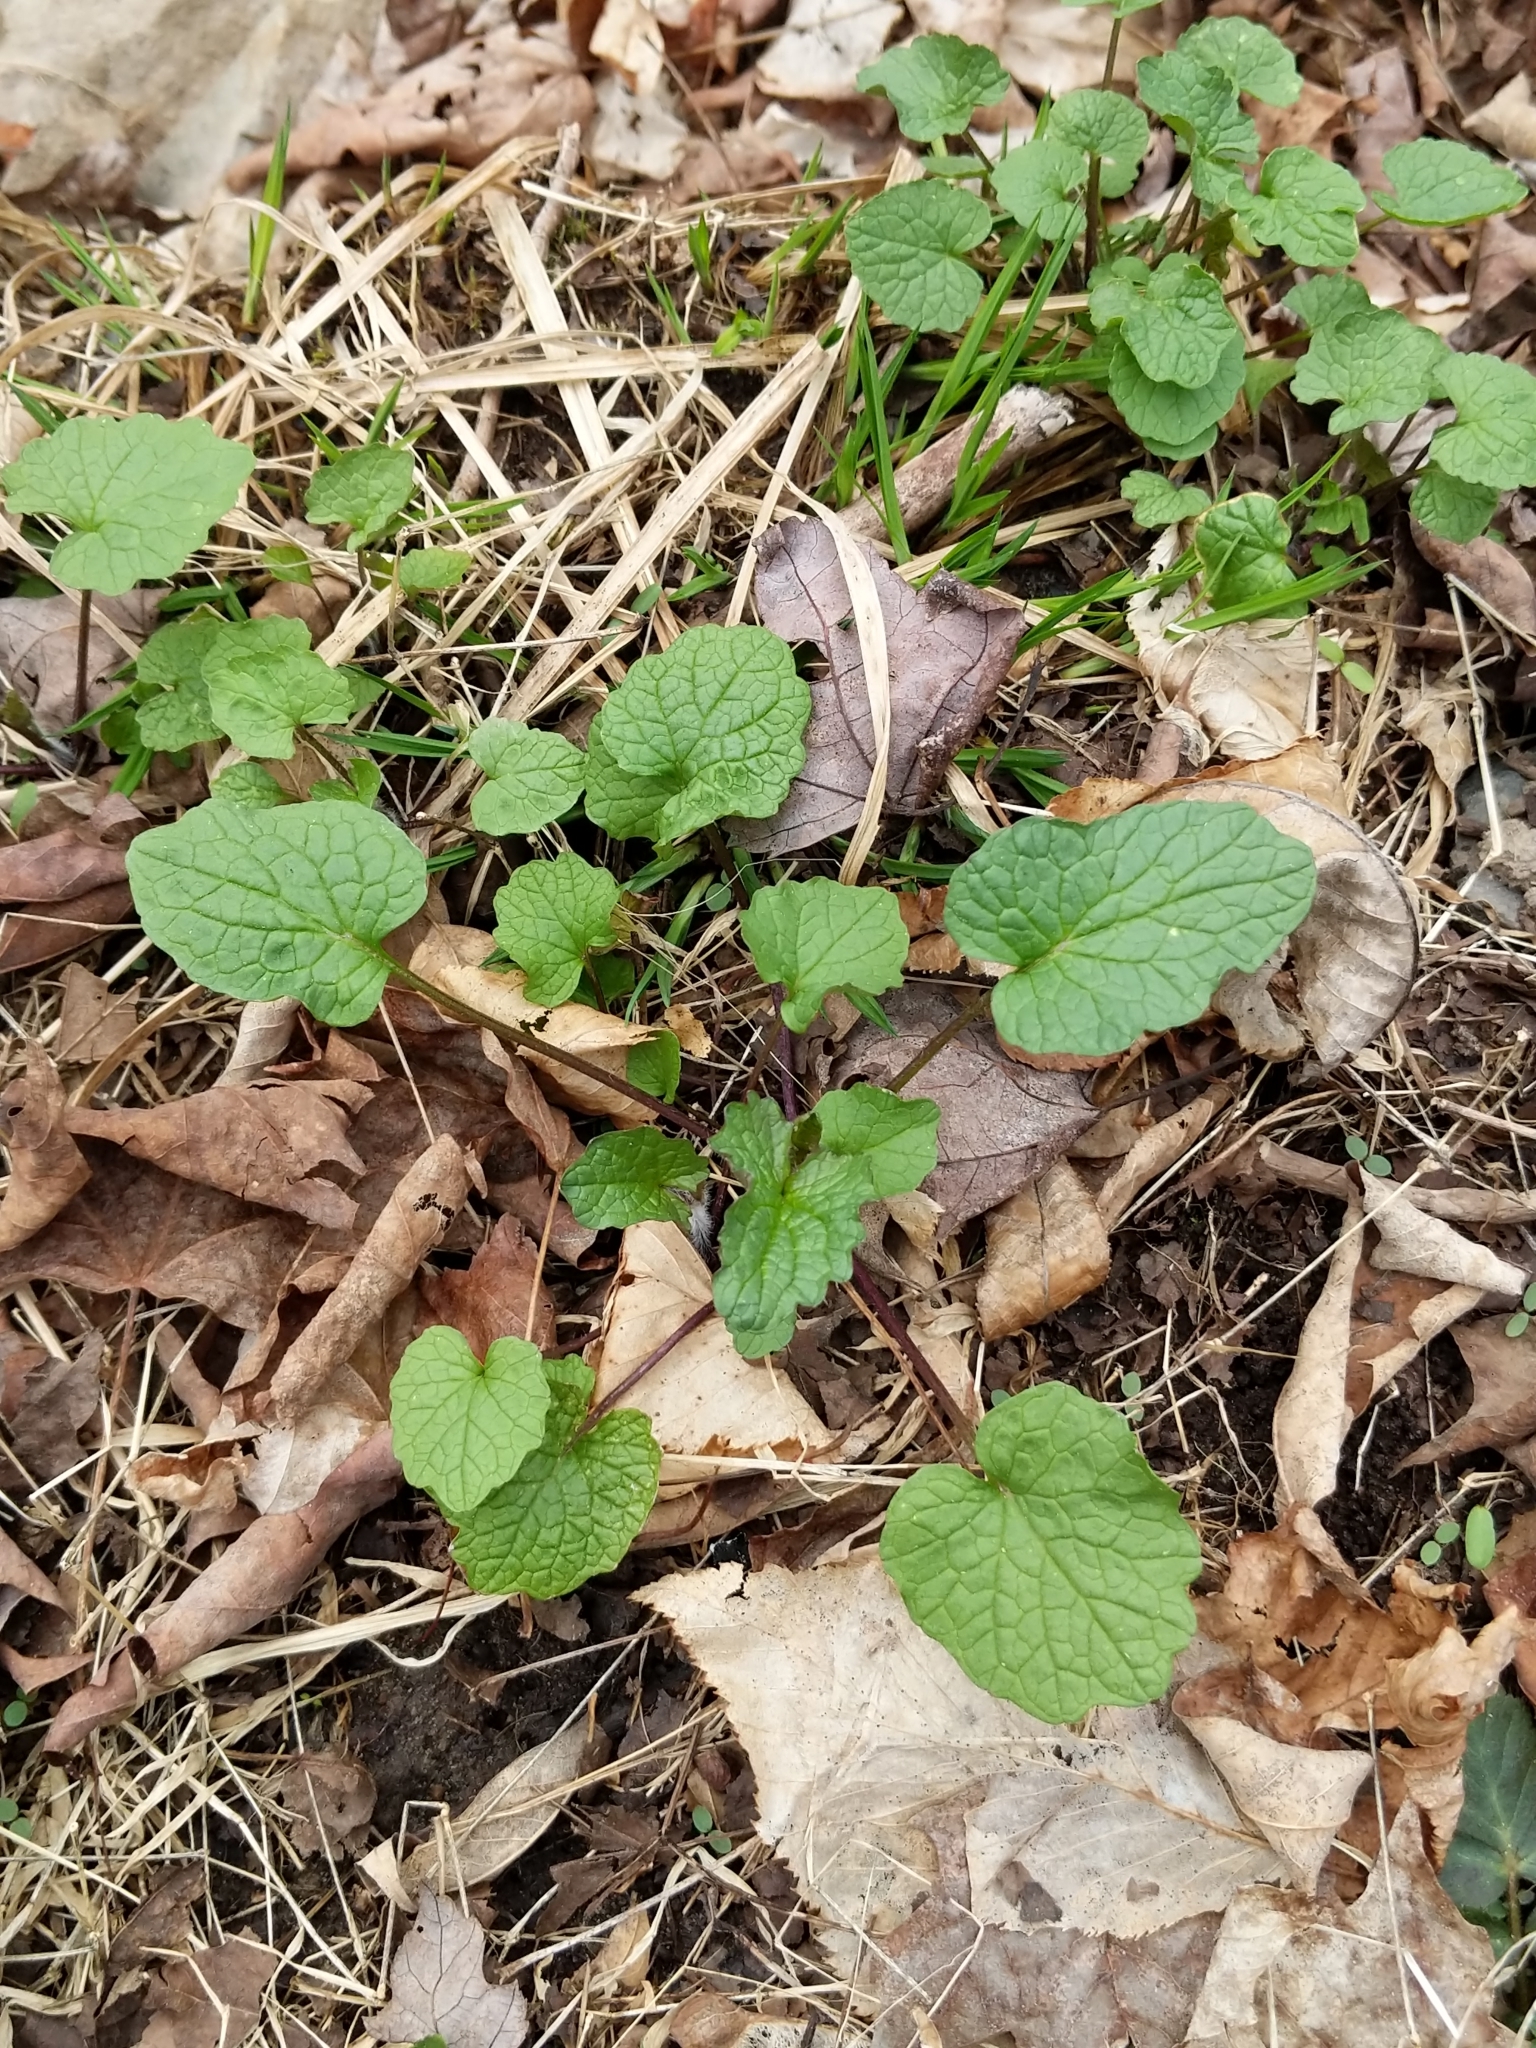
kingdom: Plantae
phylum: Tracheophyta
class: Magnoliopsida
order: Brassicales
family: Brassicaceae
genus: Alliaria
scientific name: Alliaria petiolata
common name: Garlic mustard
